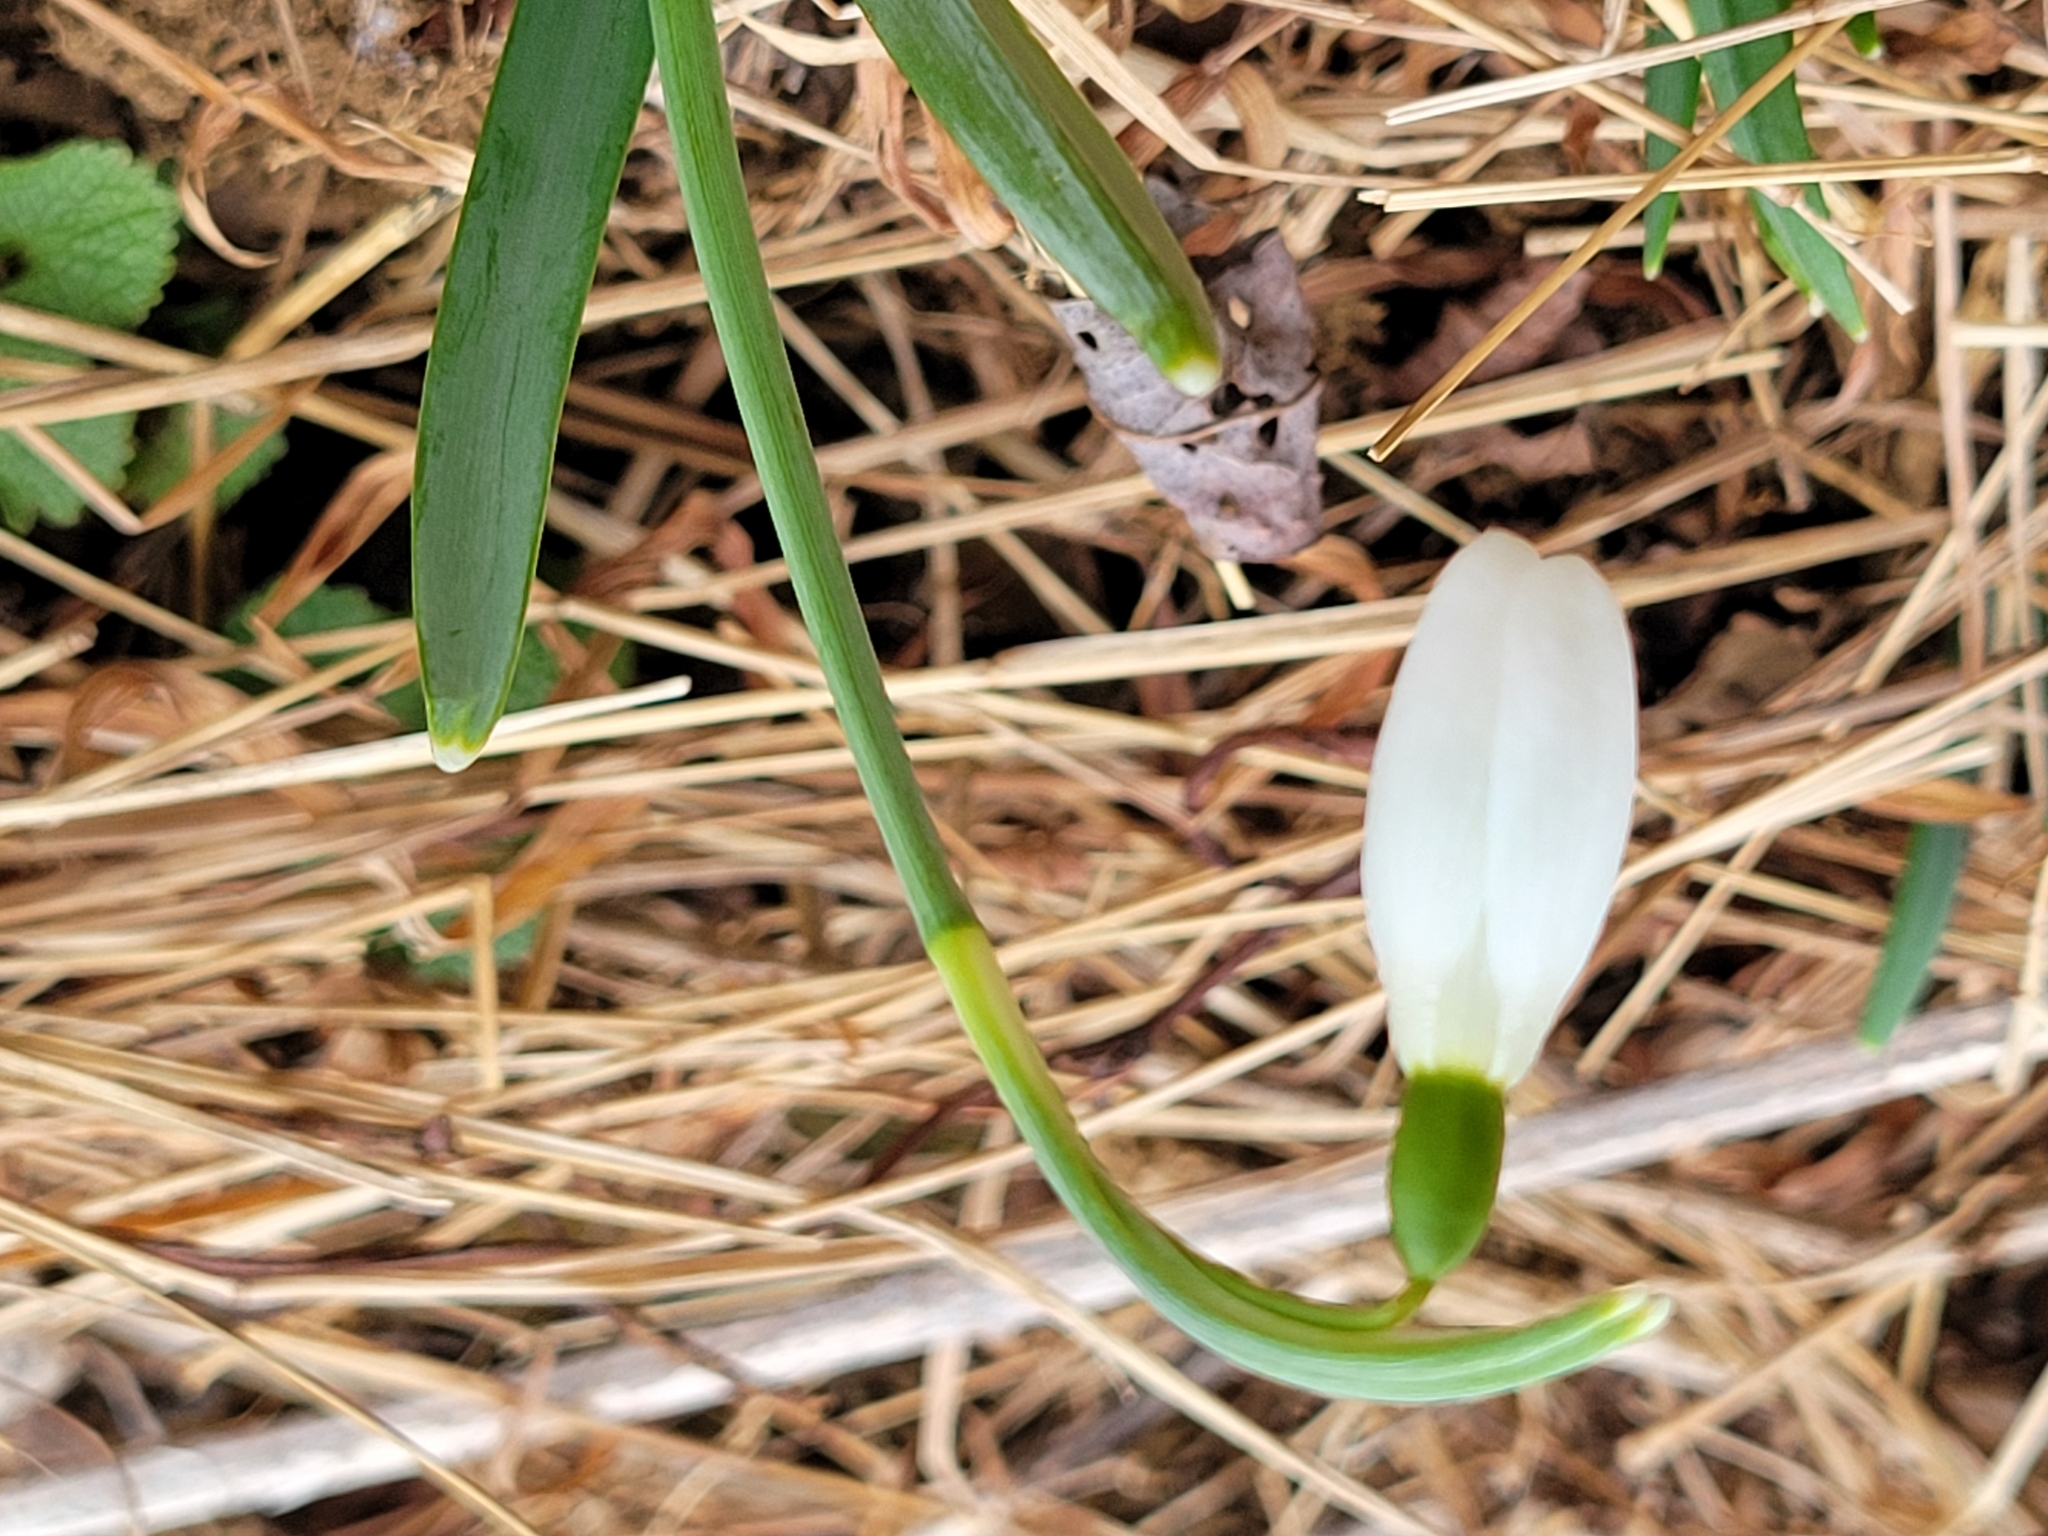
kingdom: Plantae
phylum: Tracheophyta
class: Liliopsida
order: Asparagales
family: Amaryllidaceae
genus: Galanthus
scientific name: Galanthus nivalis
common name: Snowdrop
